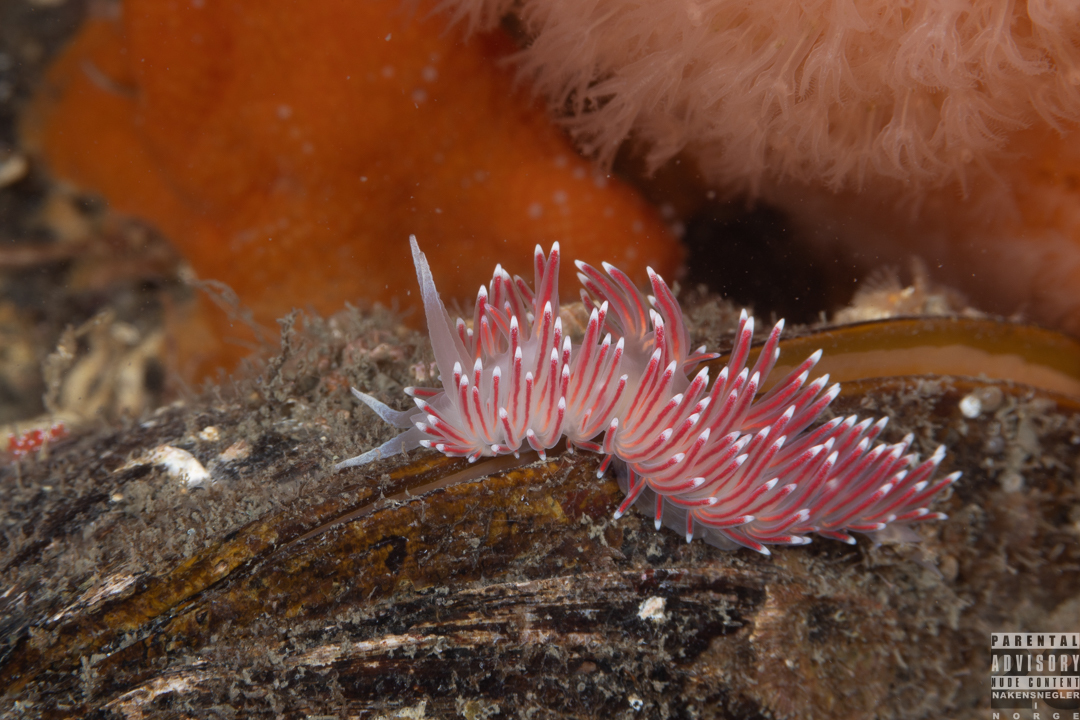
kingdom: Animalia
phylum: Mollusca
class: Gastropoda
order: Nudibranchia
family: Flabellinidae
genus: Carronella
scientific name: Carronella pellucida
